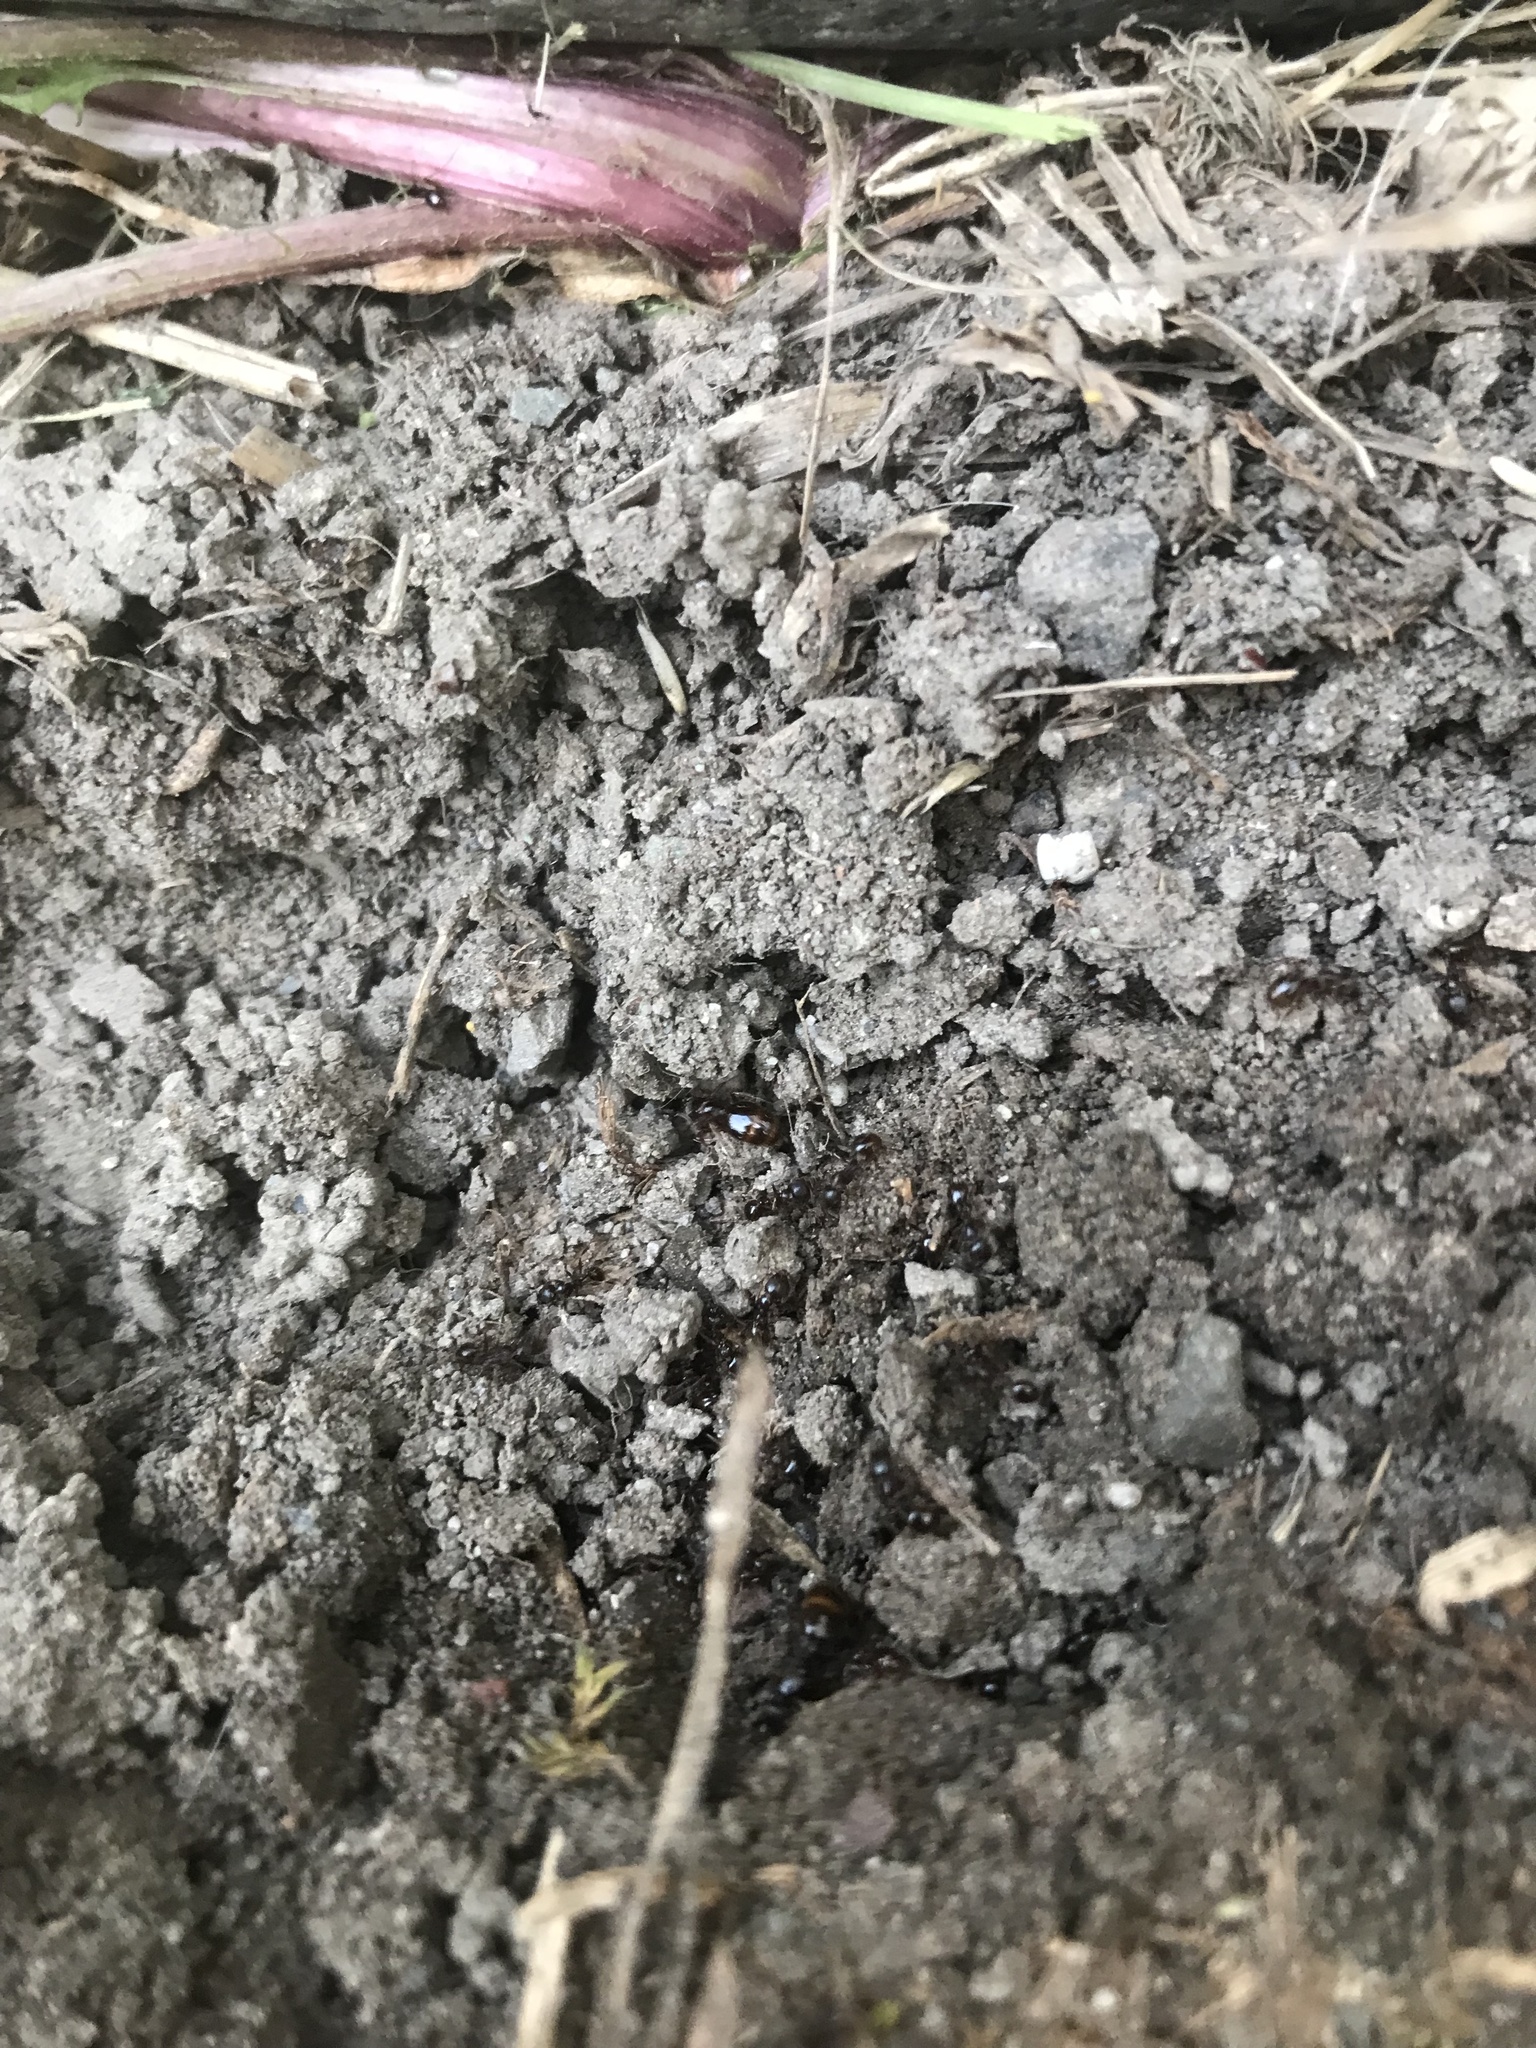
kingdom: Animalia
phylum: Arthropoda
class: Insecta
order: Hymenoptera
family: Formicidae
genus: Aphaenogaster
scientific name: Aphaenogaster occidentalis
